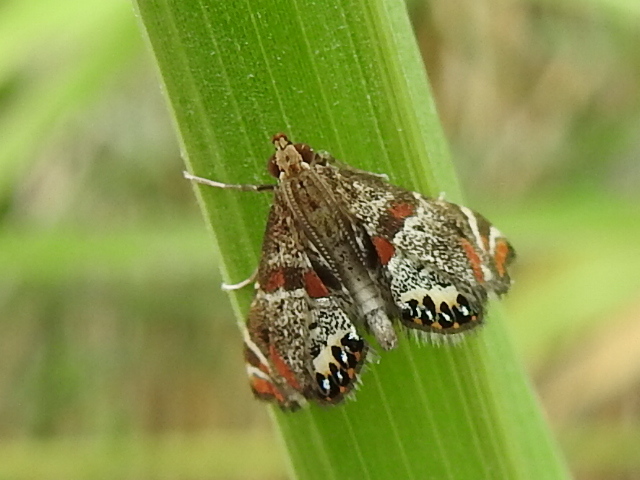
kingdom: Animalia
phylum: Arthropoda
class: Insecta
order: Lepidoptera
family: Crambidae
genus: Petrophila
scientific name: Petrophila jaliscalis
